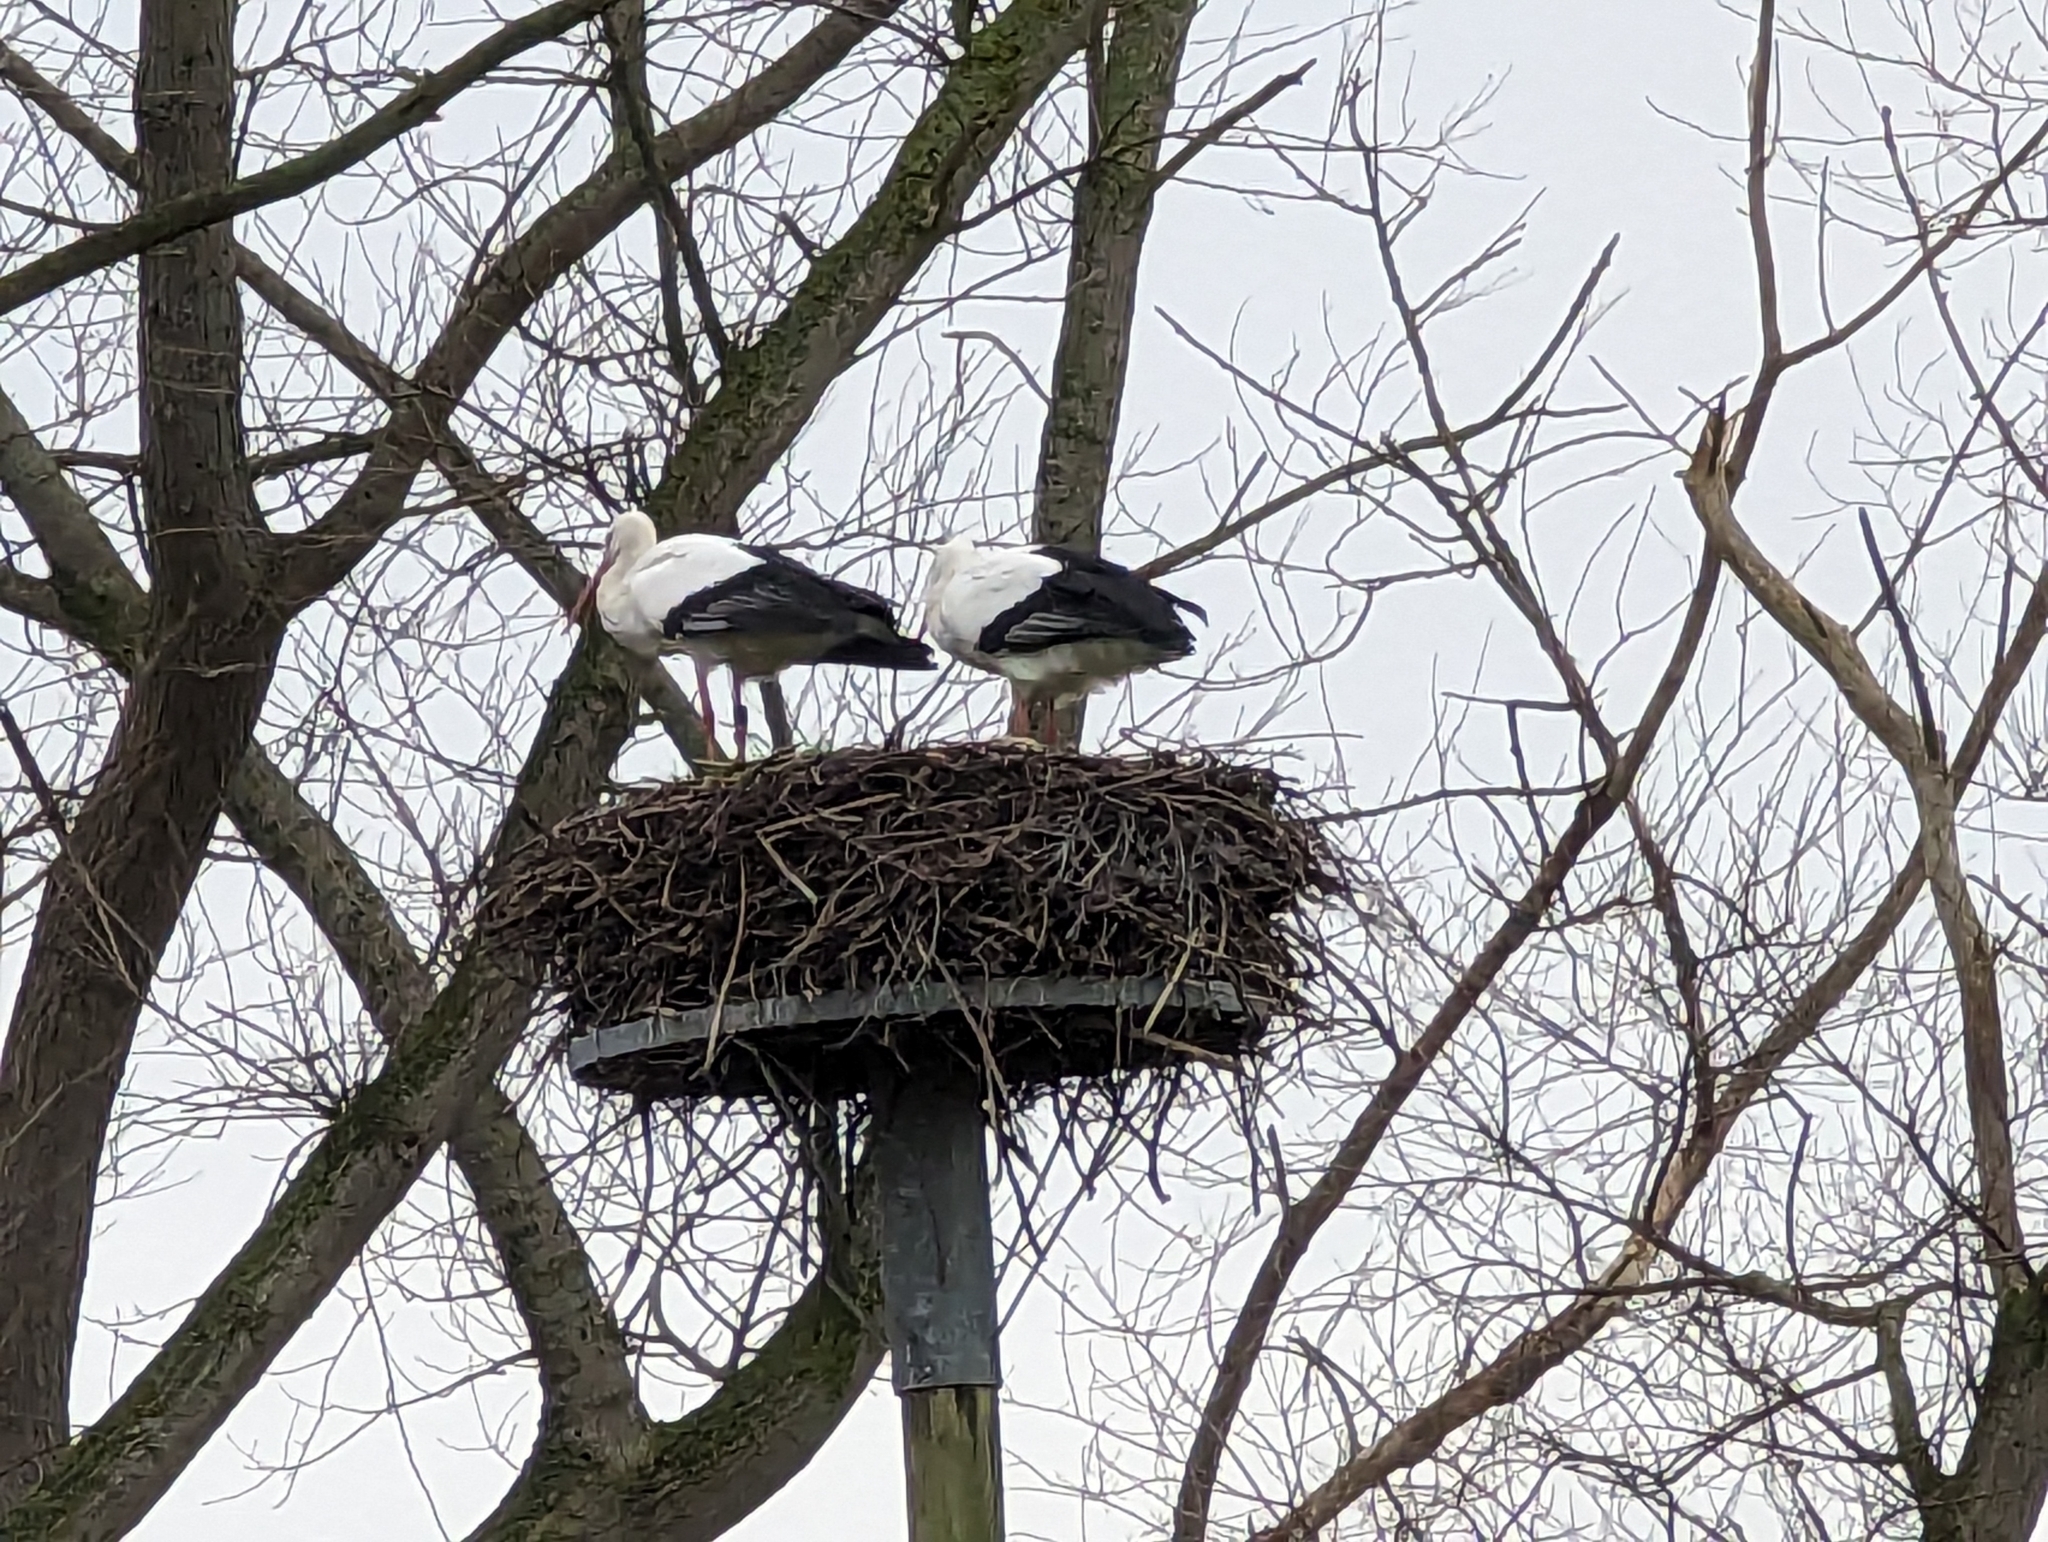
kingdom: Animalia
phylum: Chordata
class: Aves
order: Ciconiiformes
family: Ciconiidae
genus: Ciconia
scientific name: Ciconia ciconia
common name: White stork
